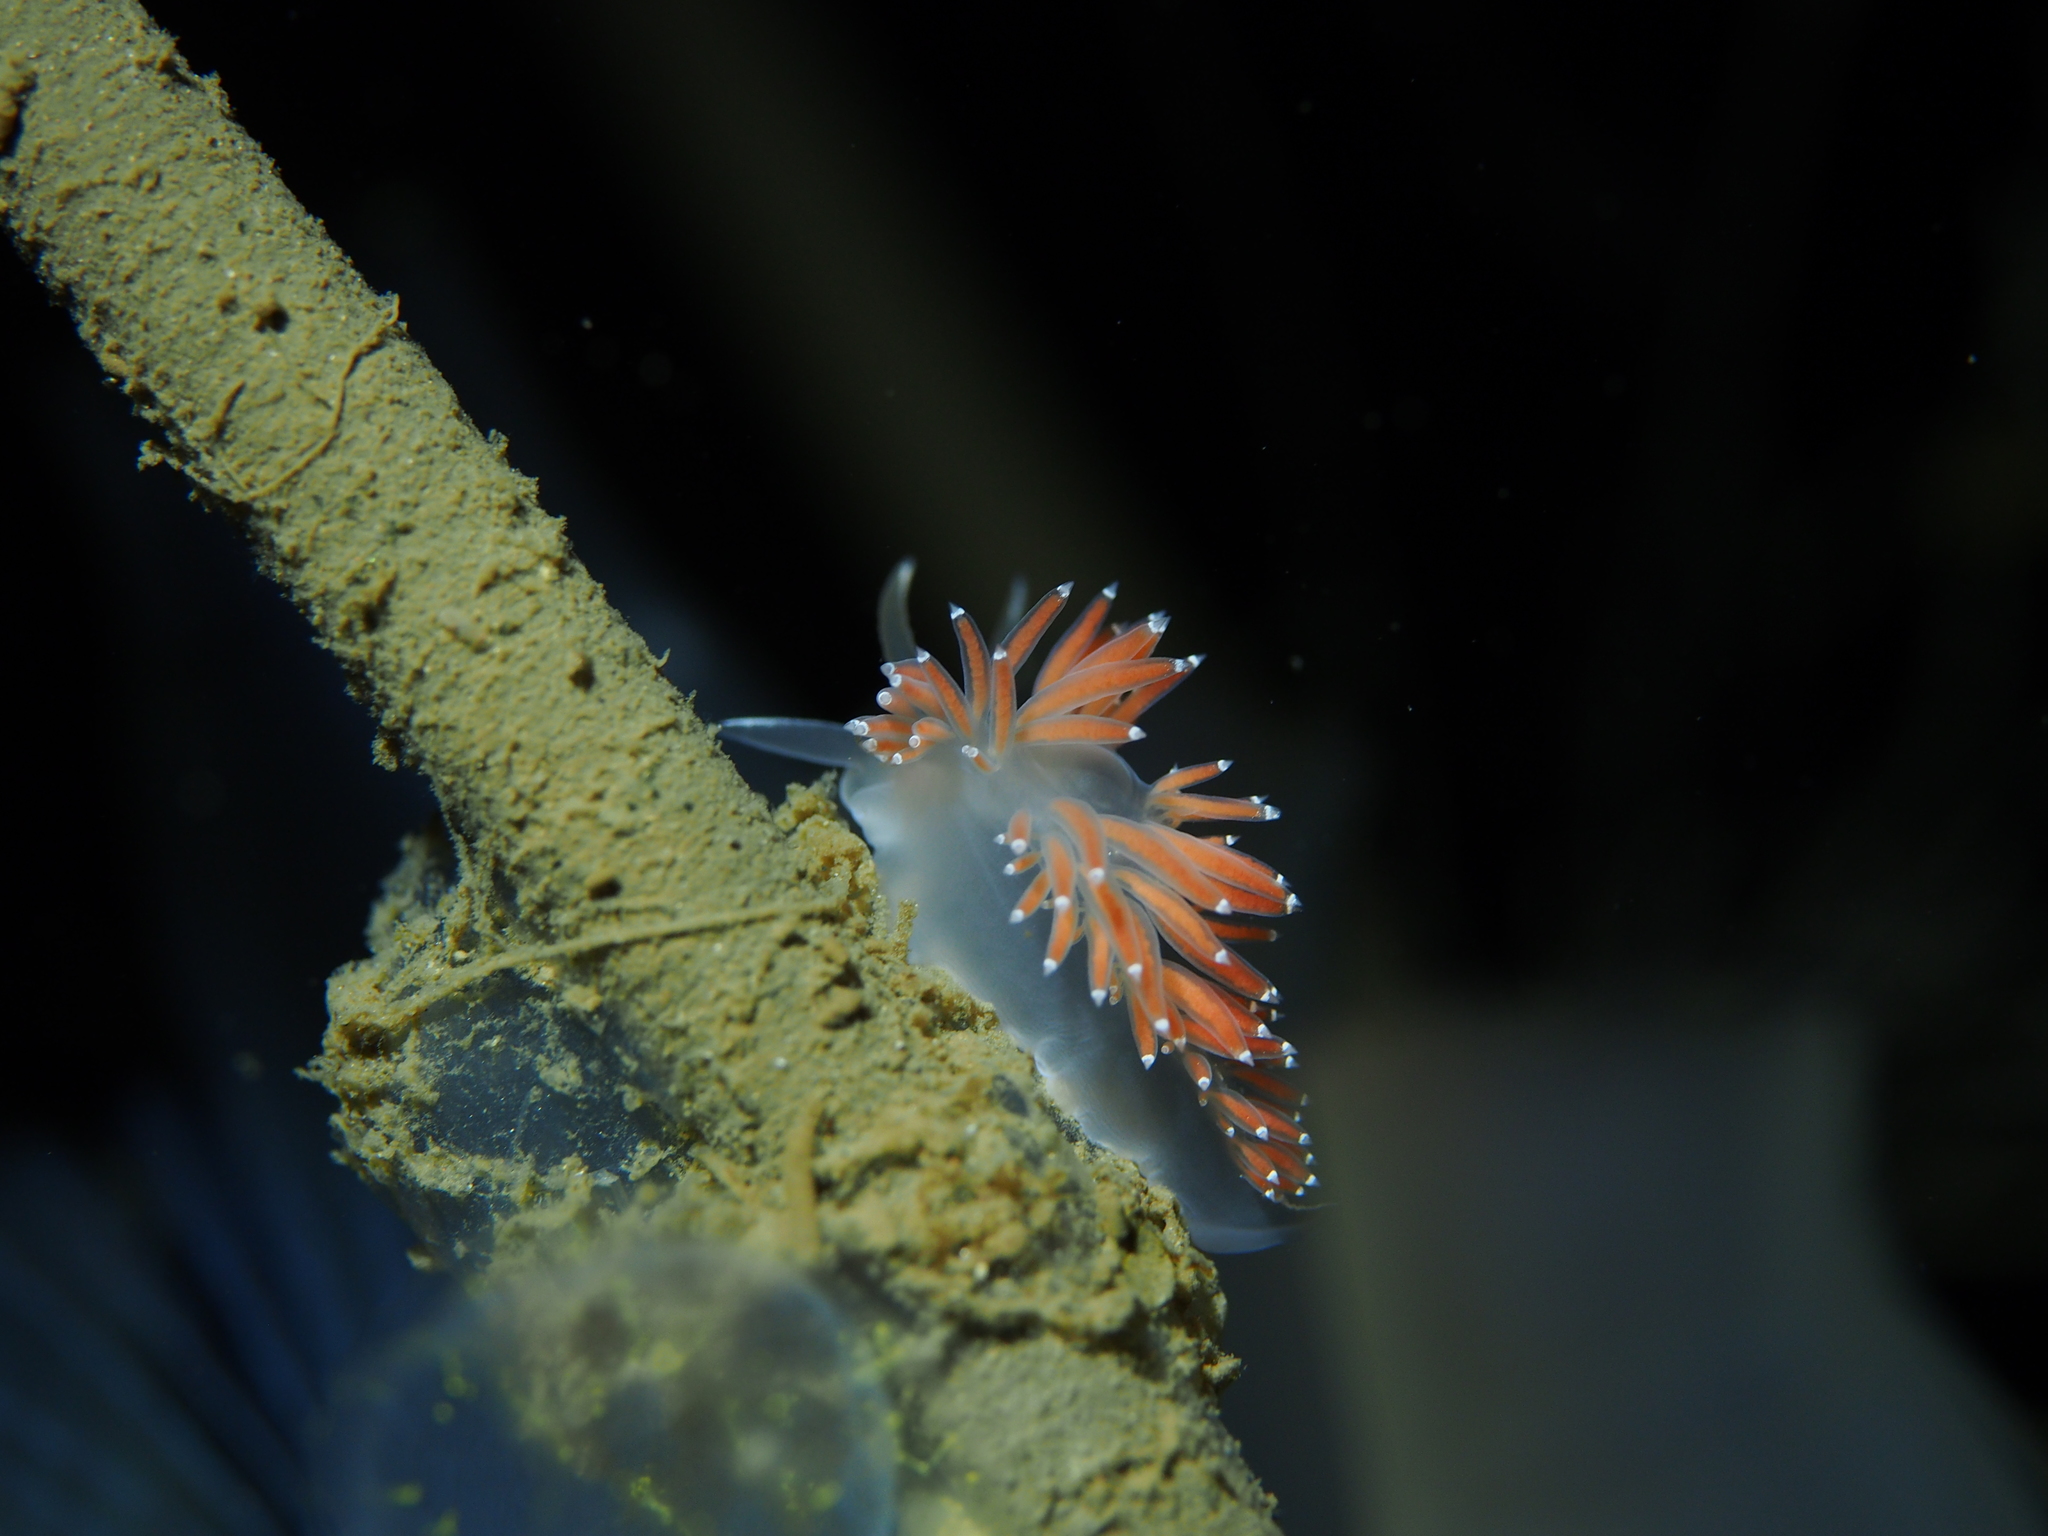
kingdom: Animalia
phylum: Mollusca
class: Gastropoda
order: Nudibranchia
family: Coryphellidae
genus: Coryphella
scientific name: Coryphella verrucosa
